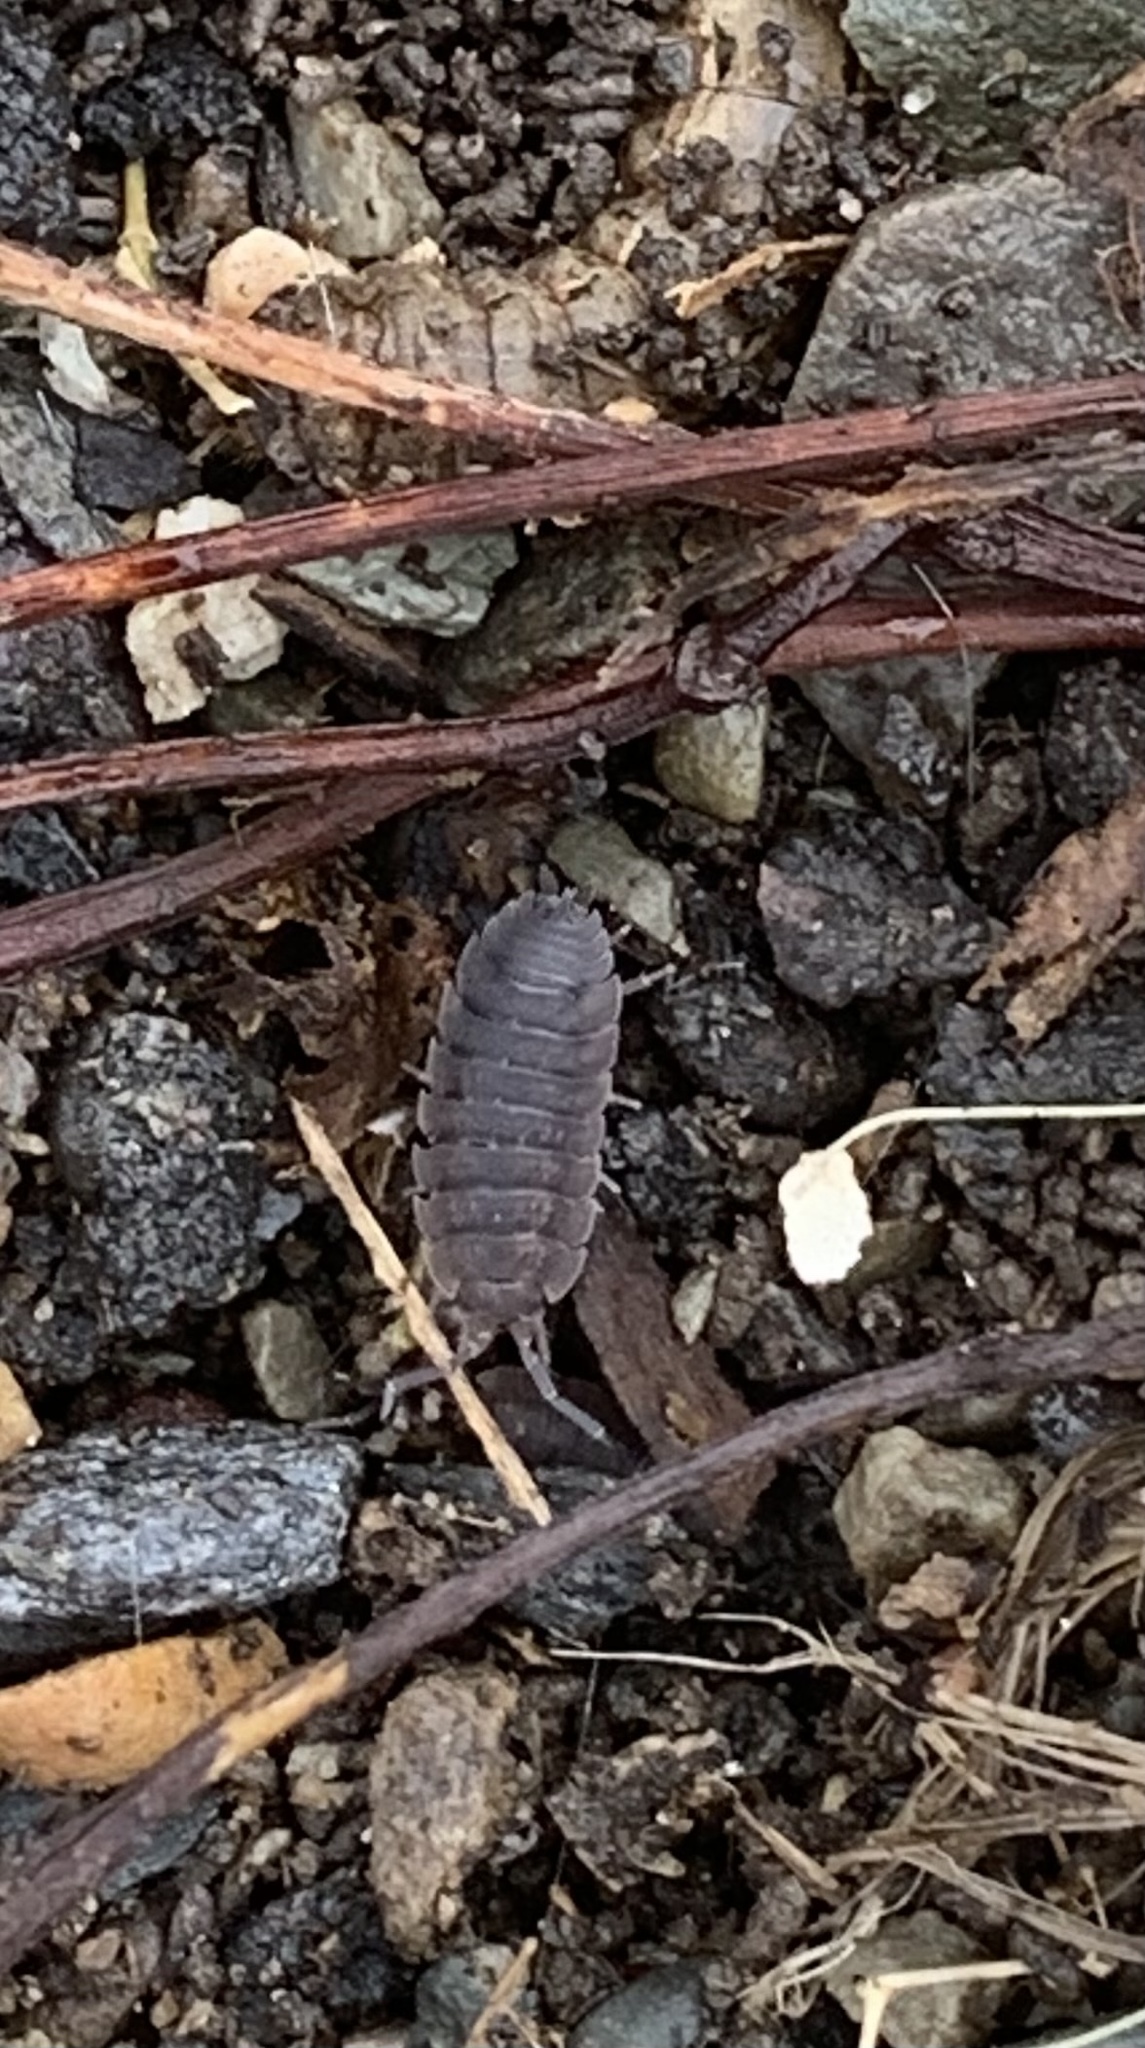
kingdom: Animalia
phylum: Arthropoda
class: Malacostraca
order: Isopoda
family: Porcellionidae
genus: Porcellio
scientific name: Porcellio scaber
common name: Common rough woodlouse
